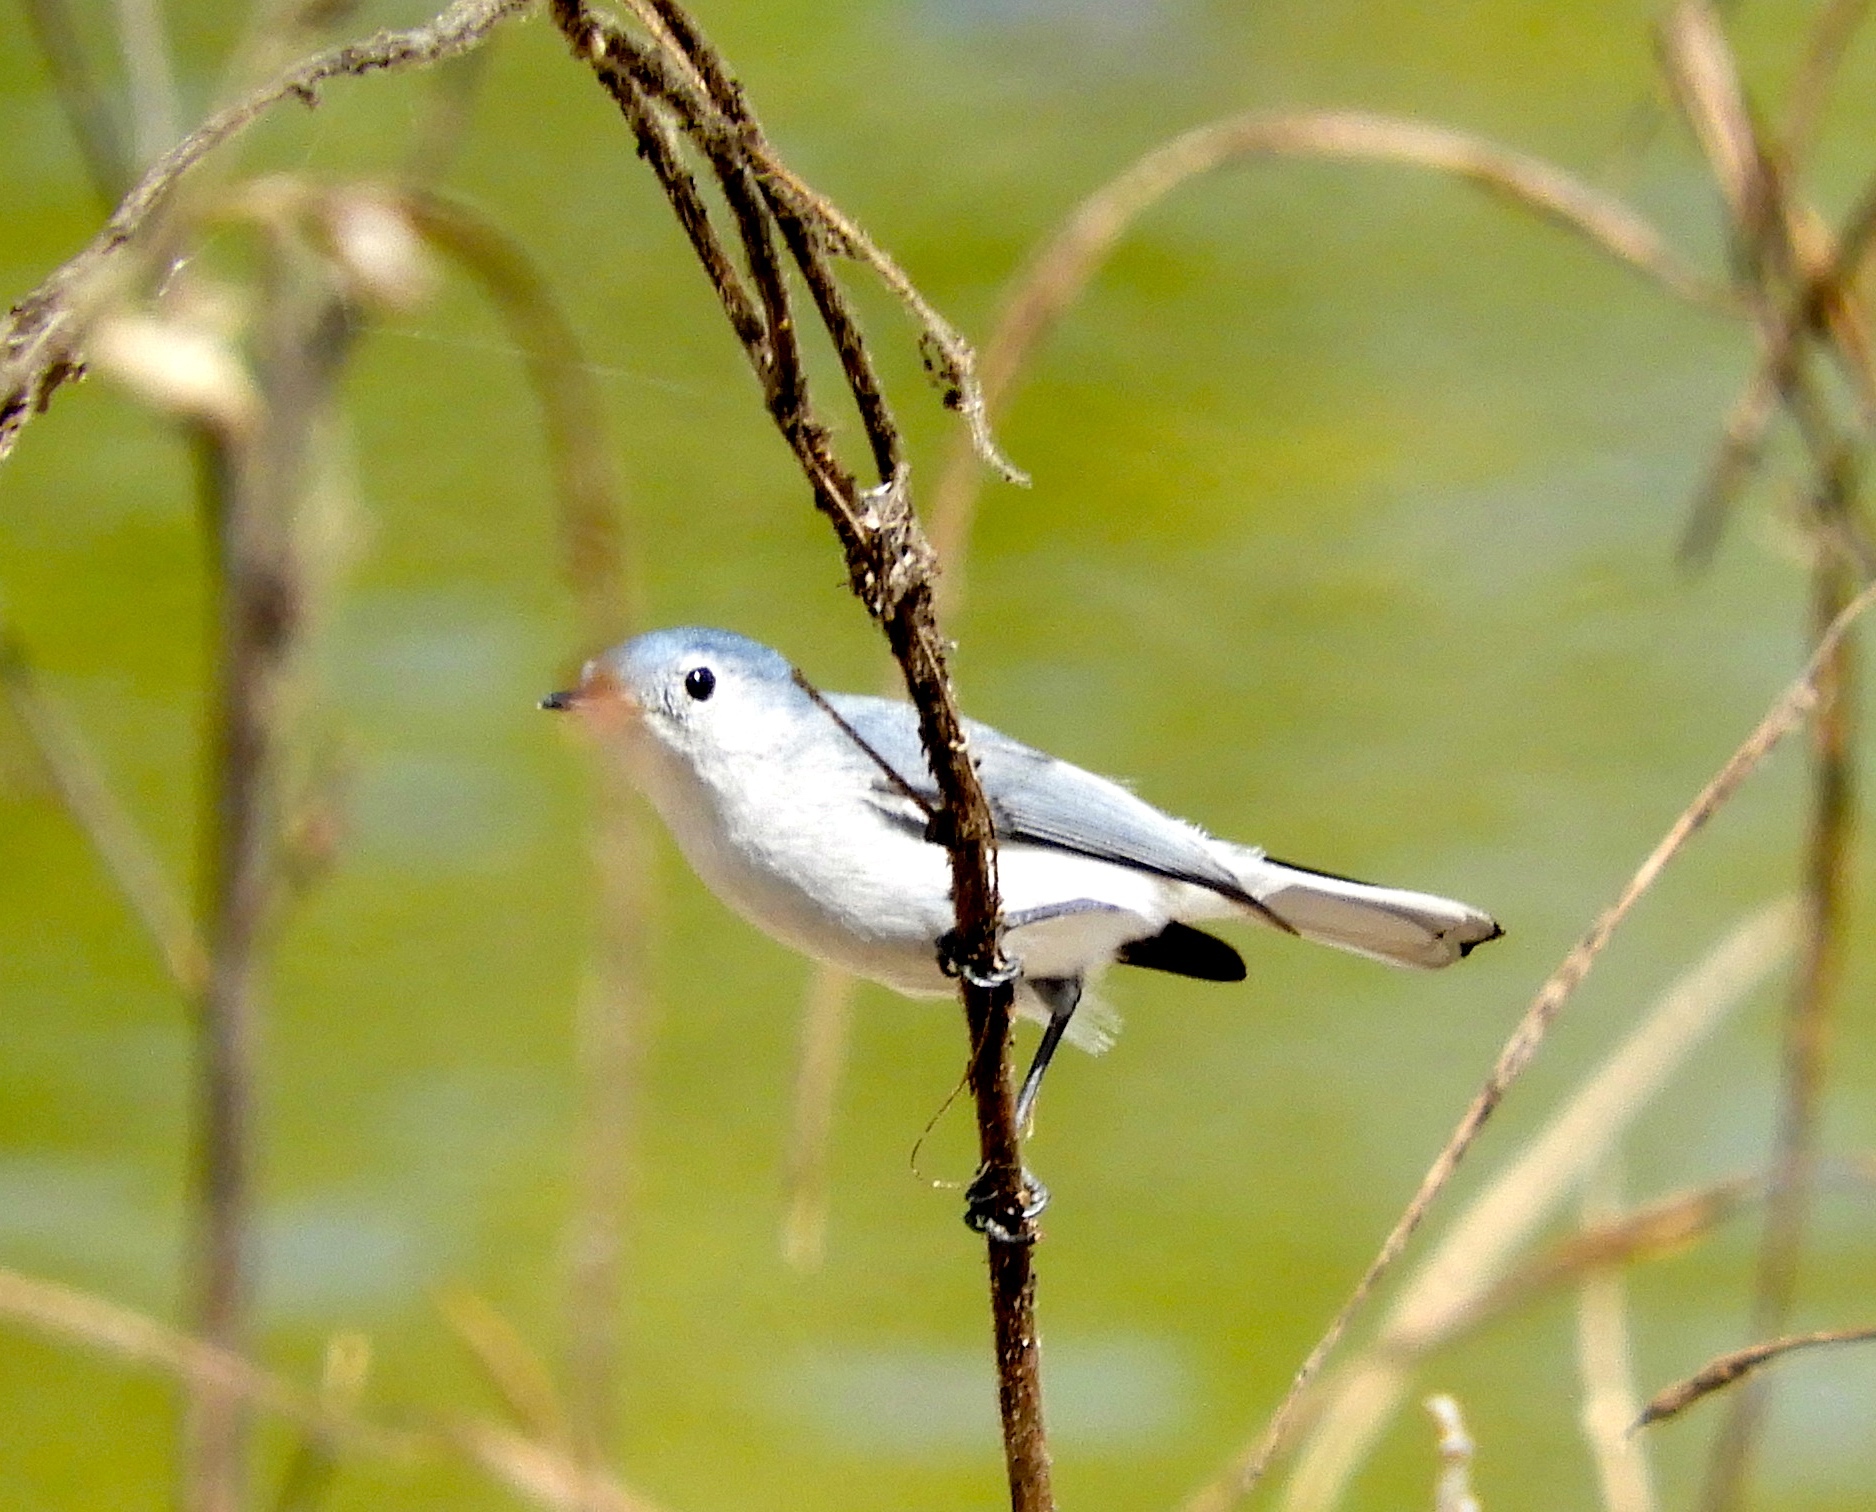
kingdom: Animalia
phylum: Chordata
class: Aves
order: Passeriformes
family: Polioptilidae
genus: Polioptila
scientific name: Polioptila
